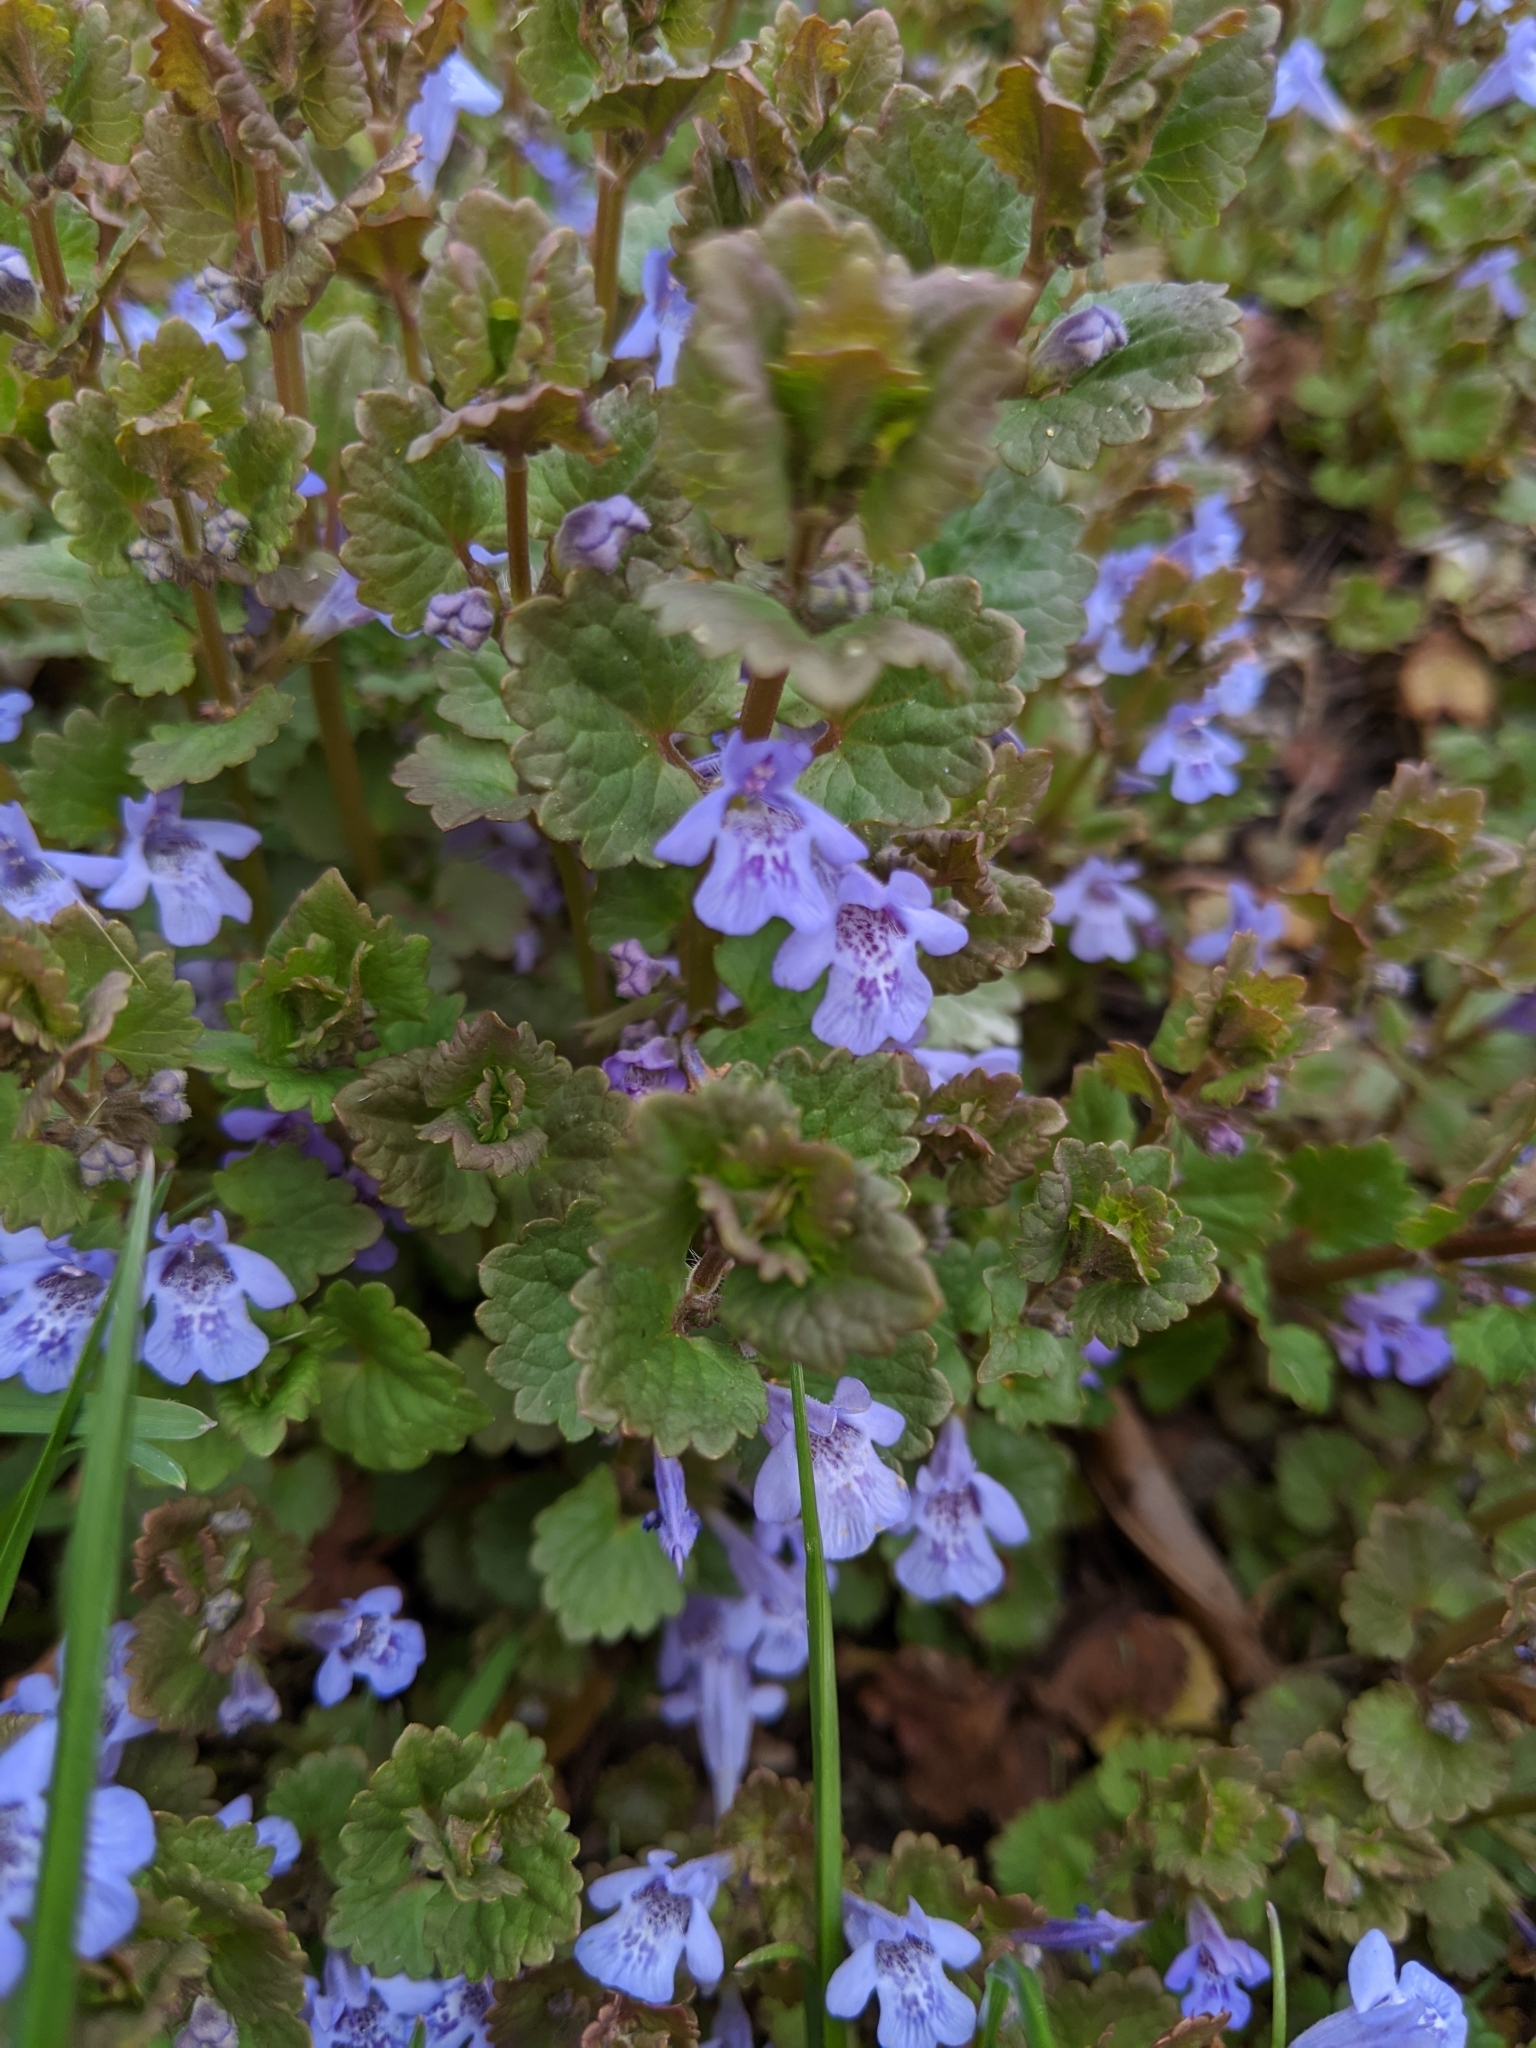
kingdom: Plantae
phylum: Tracheophyta
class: Magnoliopsida
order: Lamiales
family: Lamiaceae
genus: Glechoma
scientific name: Glechoma hederacea
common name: Ground ivy
